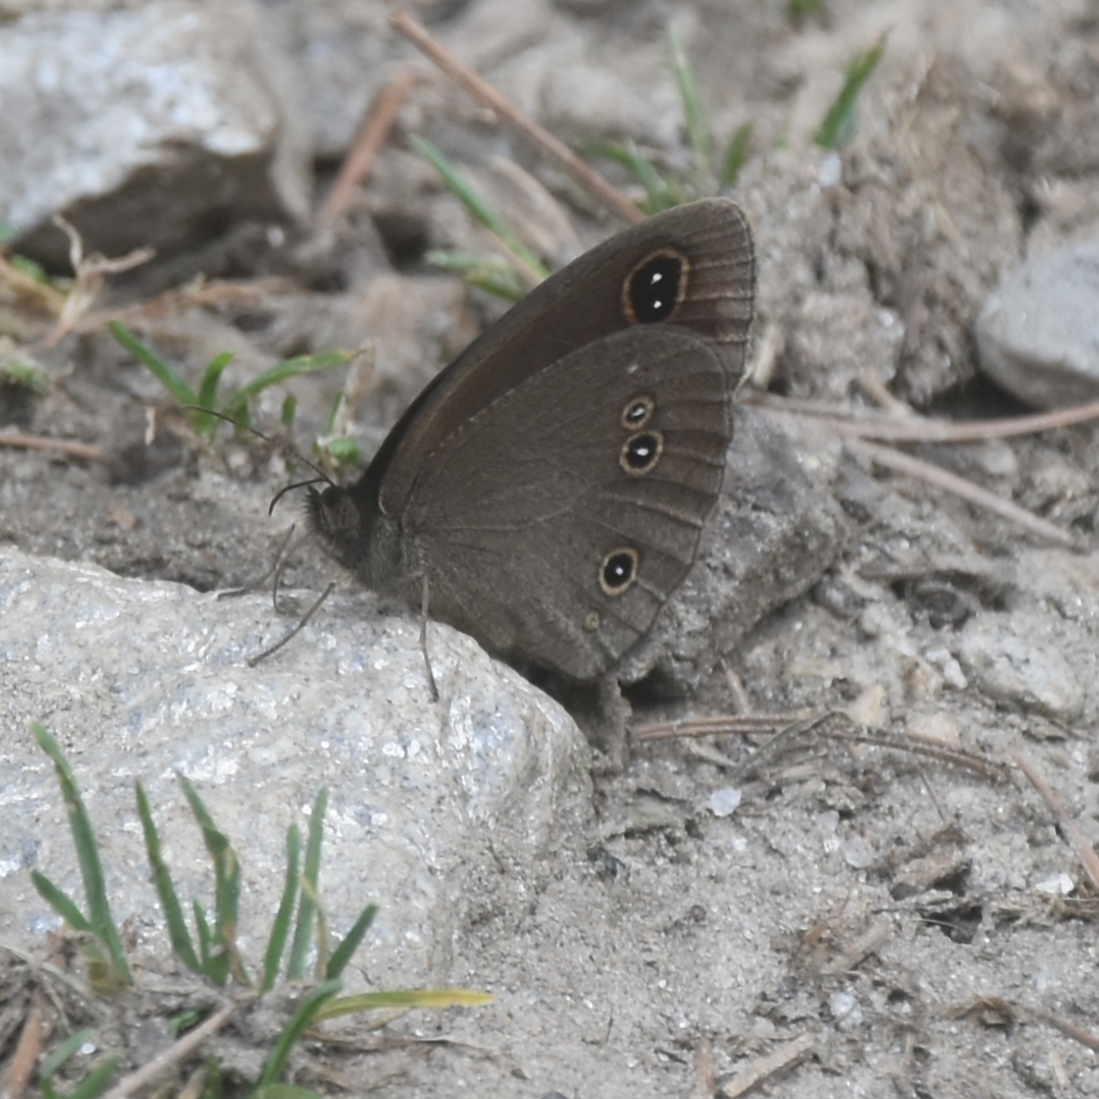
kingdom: Animalia
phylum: Arthropoda
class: Insecta
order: Lepidoptera
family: Nymphalidae
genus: Callerebia
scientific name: Callerebia nirmala
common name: Common argus
